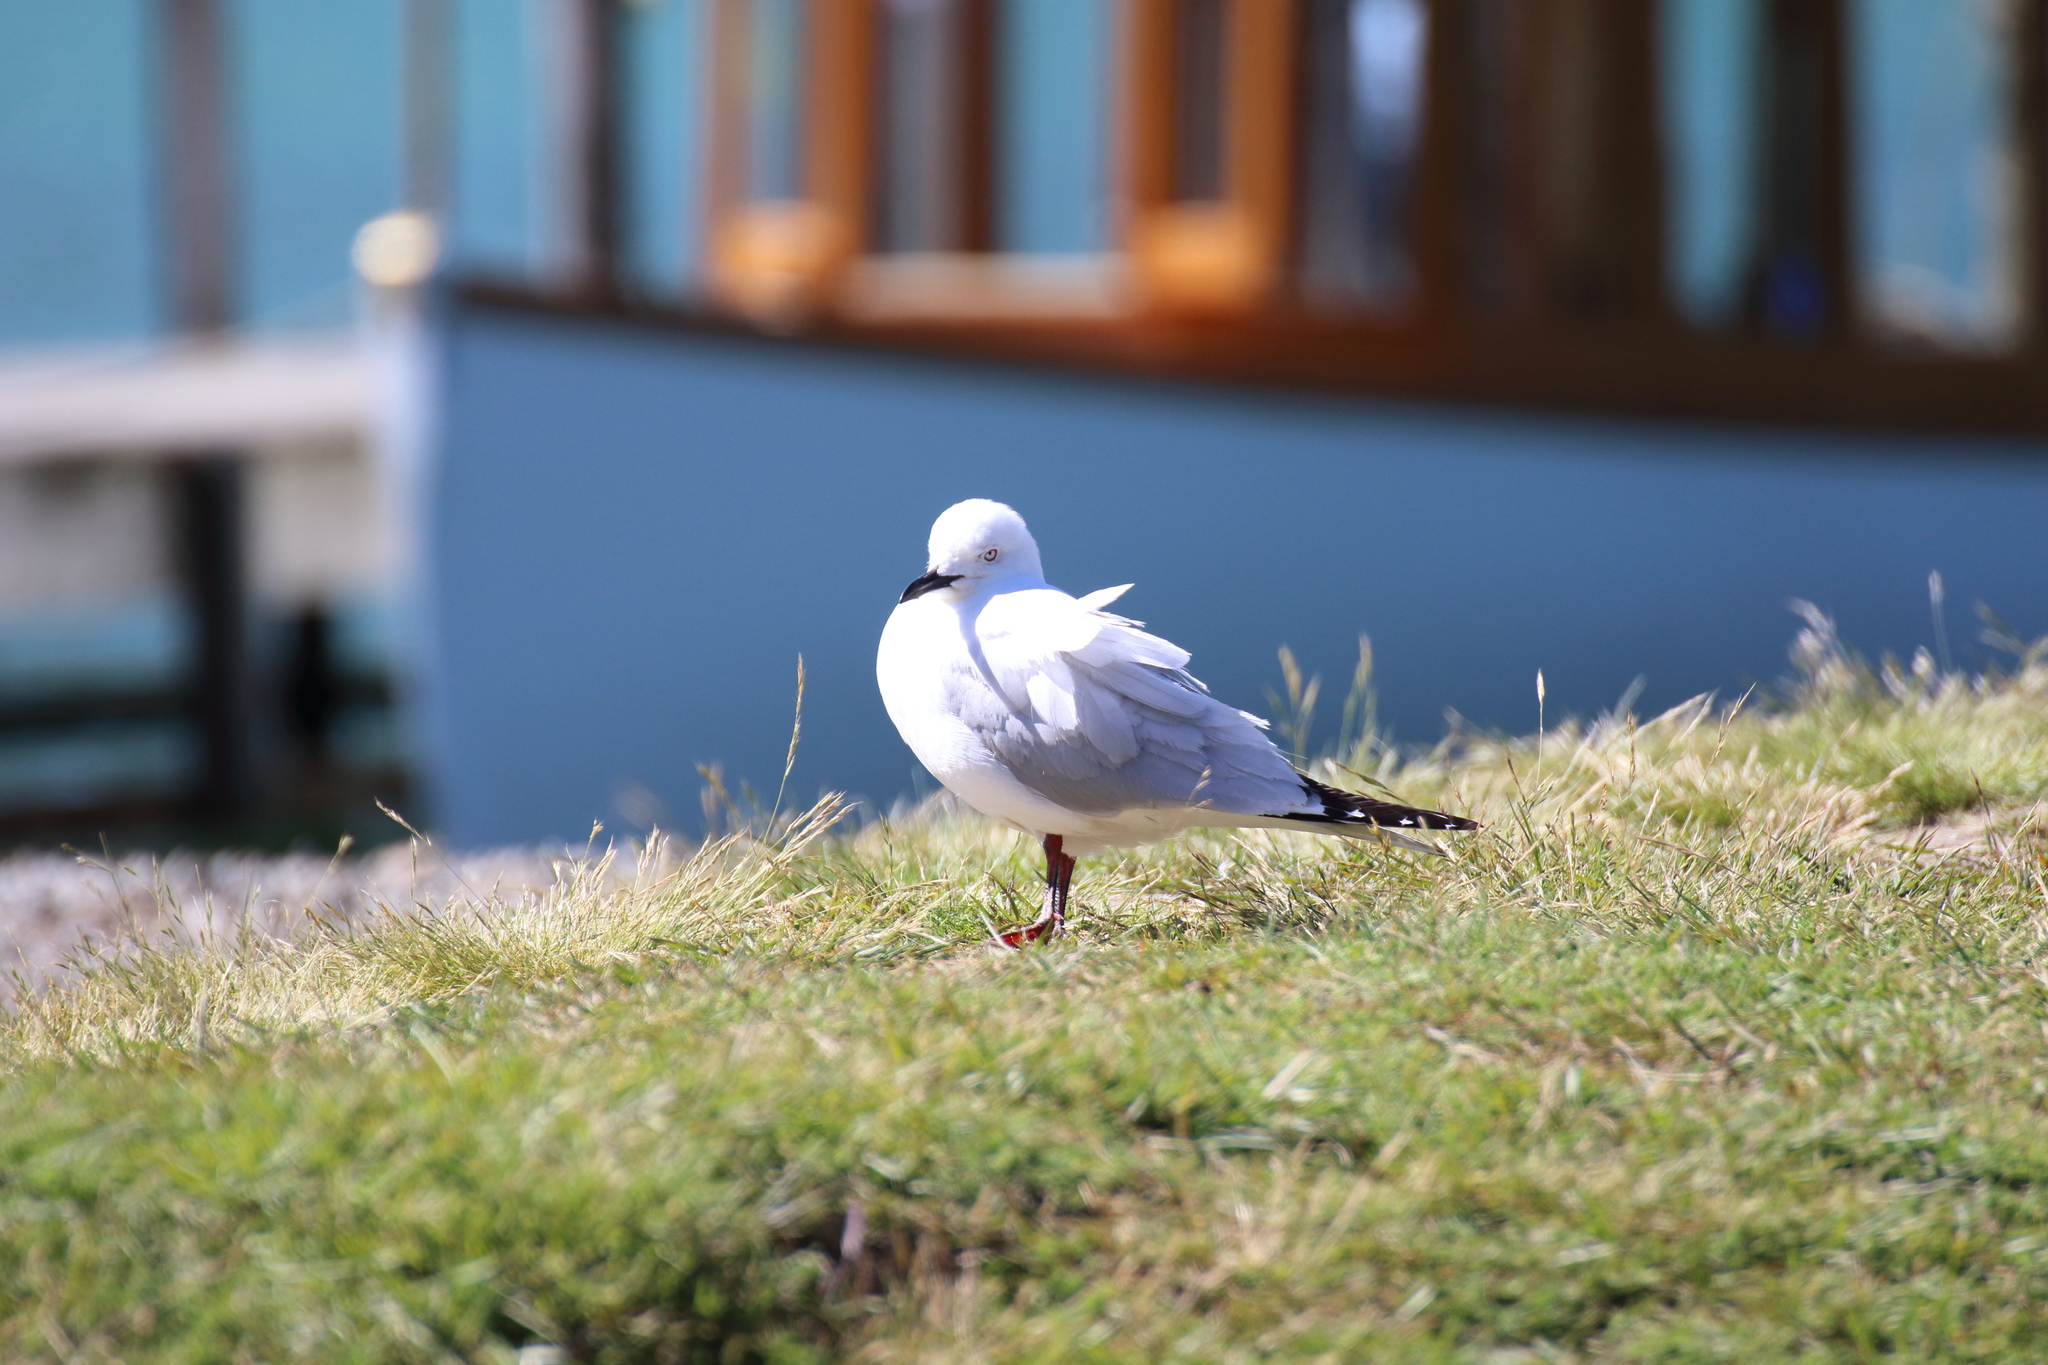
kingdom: Animalia
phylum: Chordata
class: Aves
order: Charadriiformes
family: Laridae
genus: Chroicocephalus
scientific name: Chroicocephalus bulleri
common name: Black-billed gull
